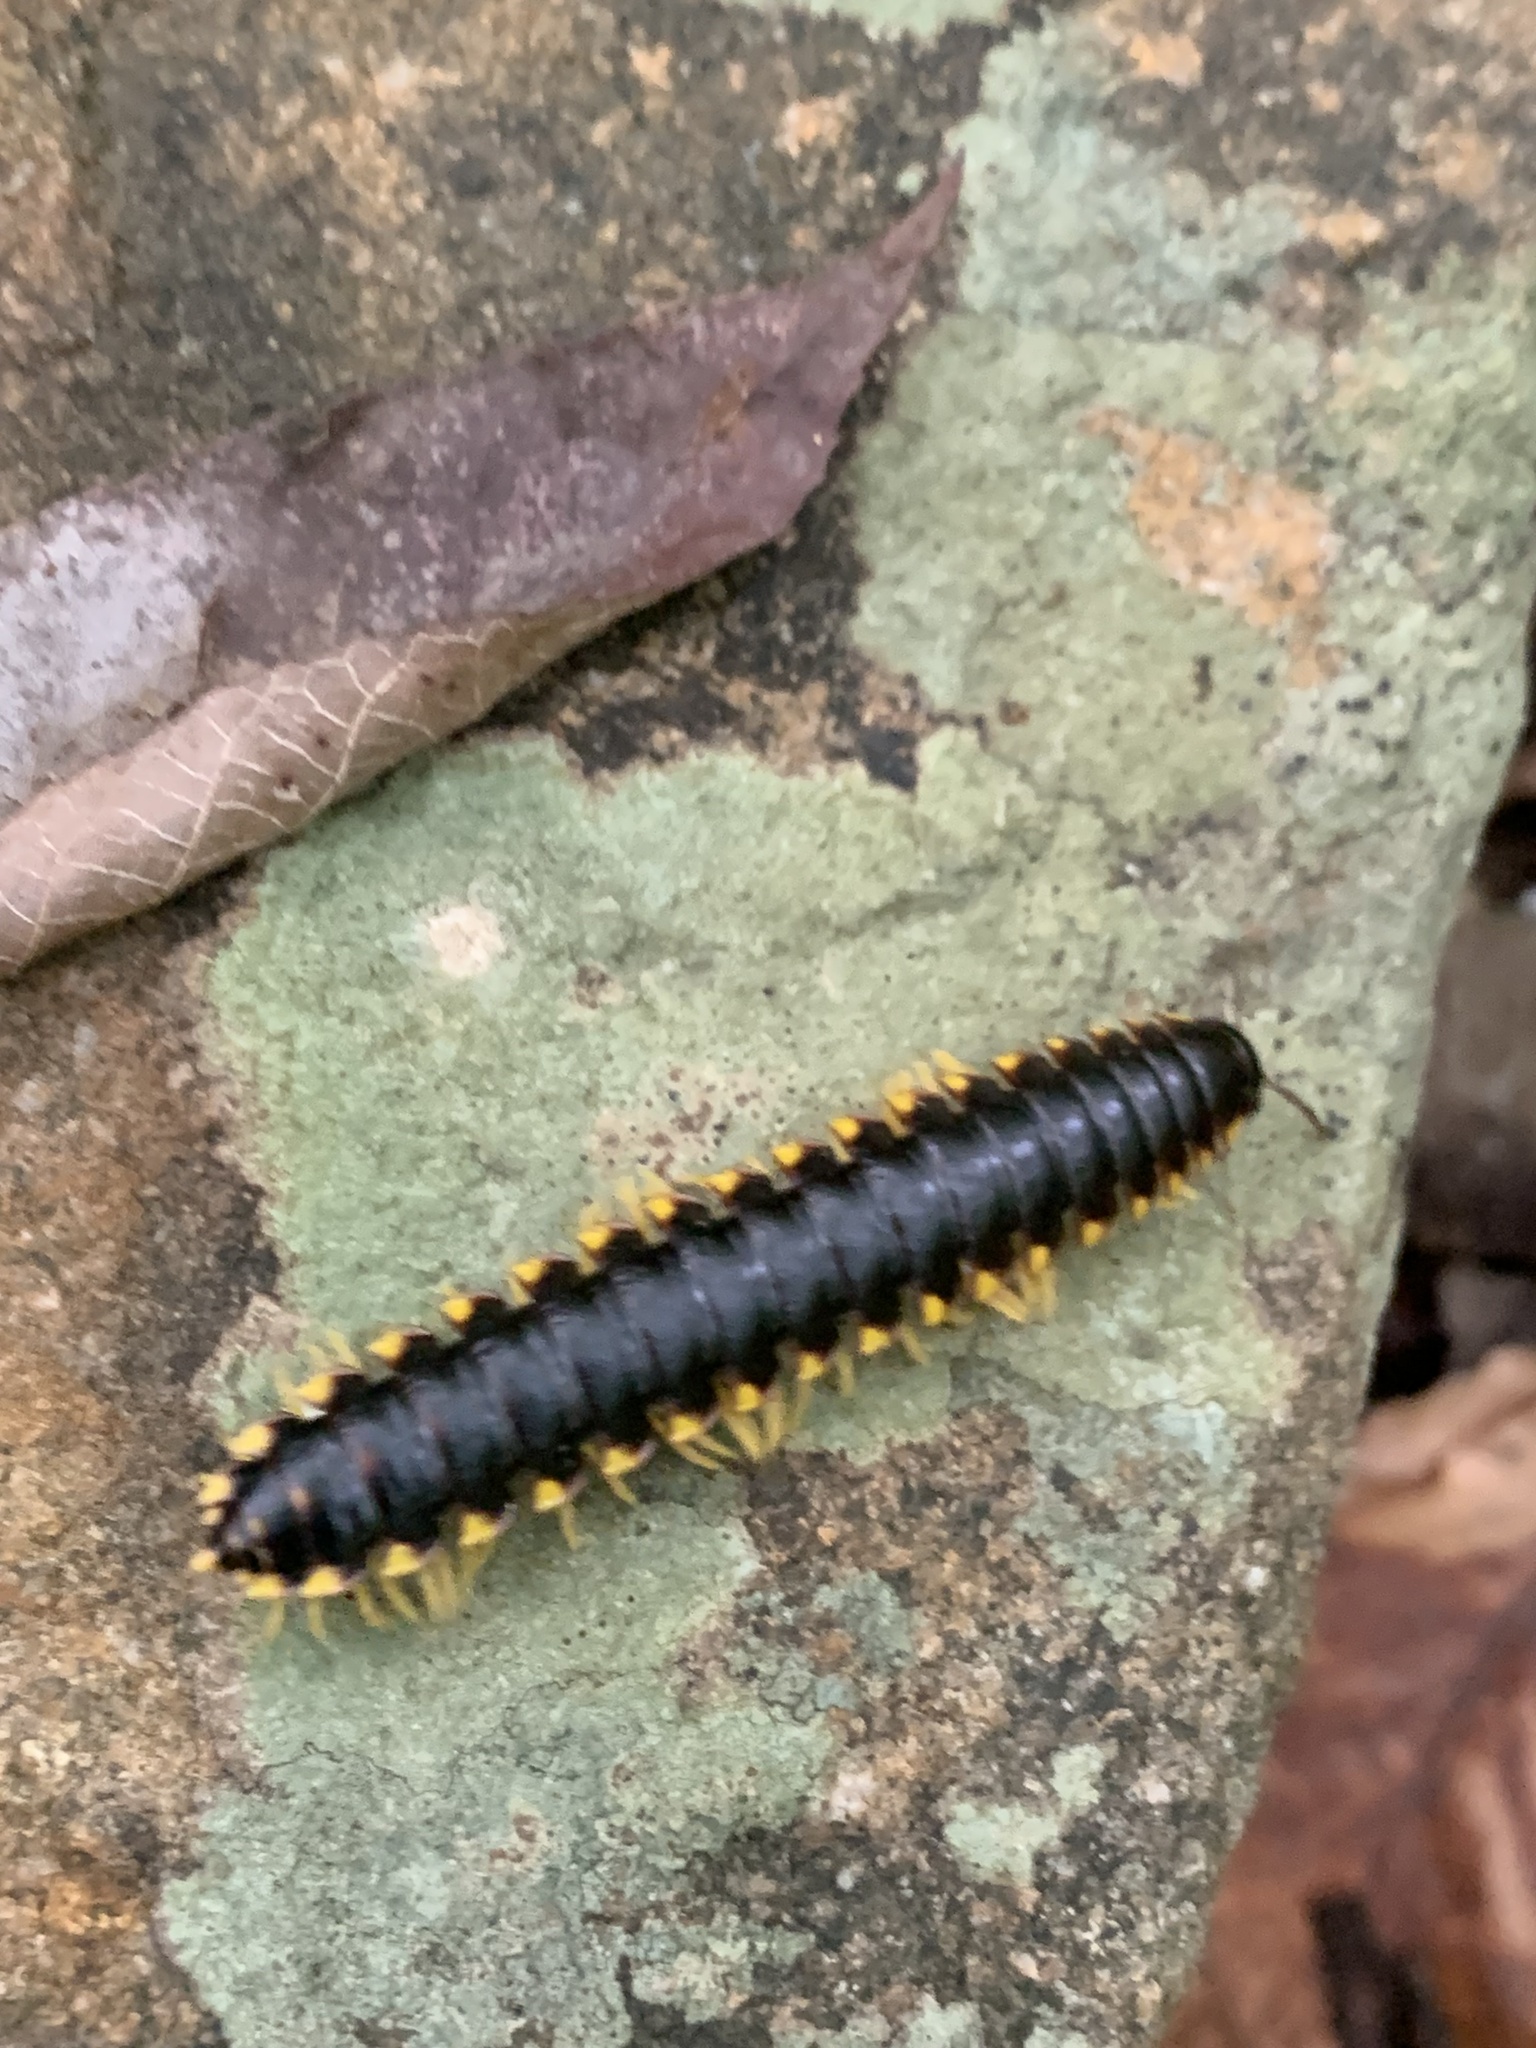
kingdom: Animalia
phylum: Arthropoda
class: Diplopoda
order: Polydesmida
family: Xystodesmidae
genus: Apheloria
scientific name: Apheloria tigana
